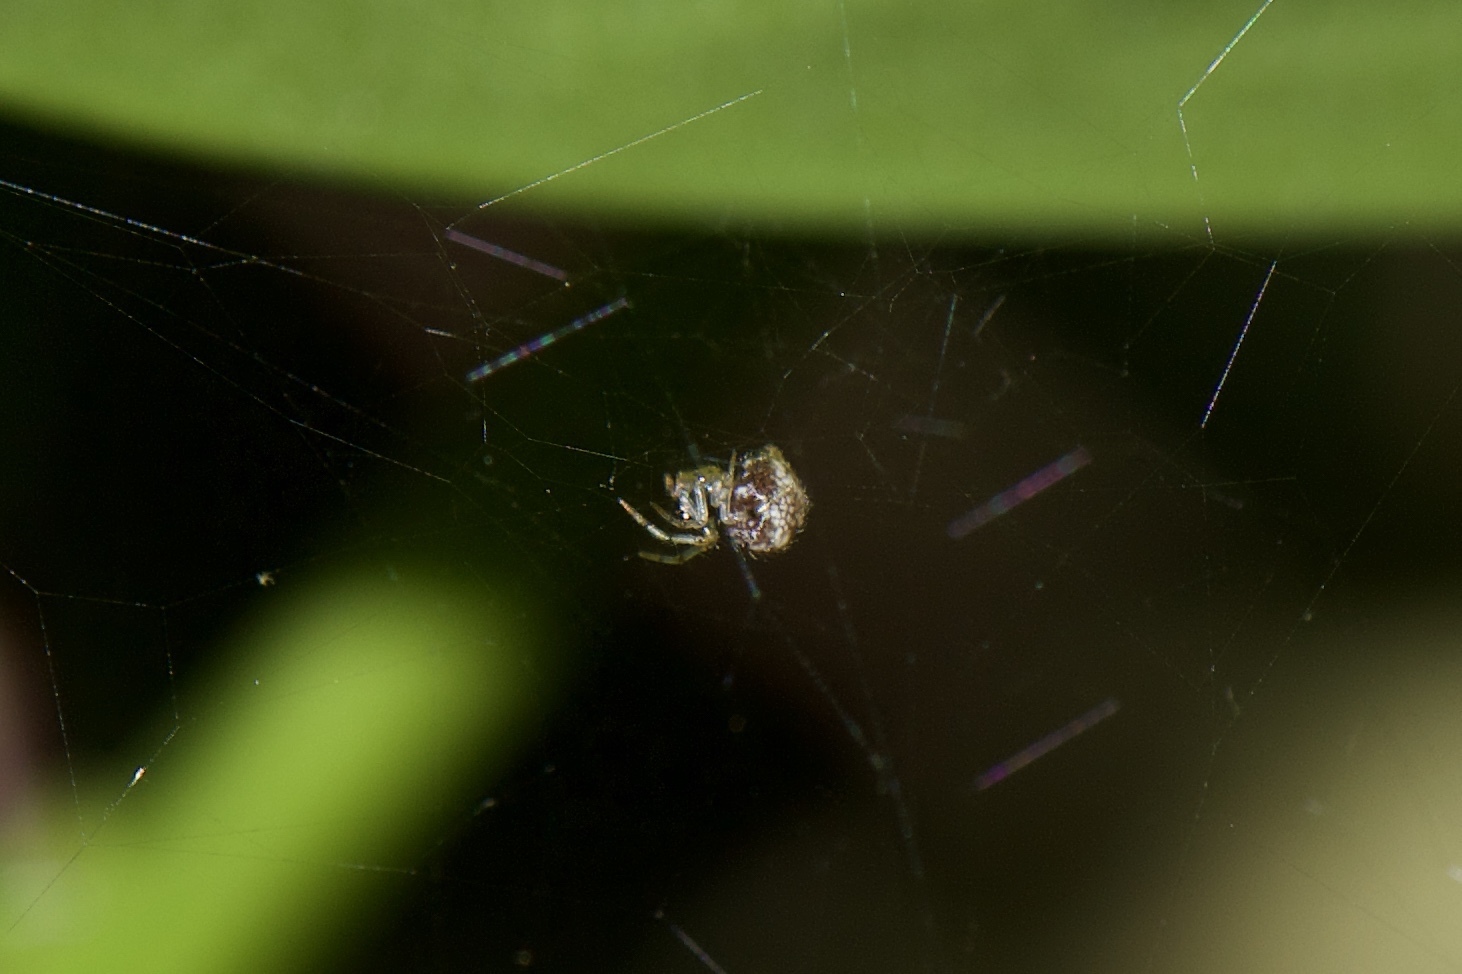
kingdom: Animalia
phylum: Arthropoda
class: Arachnida
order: Araneae
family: Theridiidae
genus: Parasteatoda
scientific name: Parasteatoda tepidariorum
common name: Common house spider
